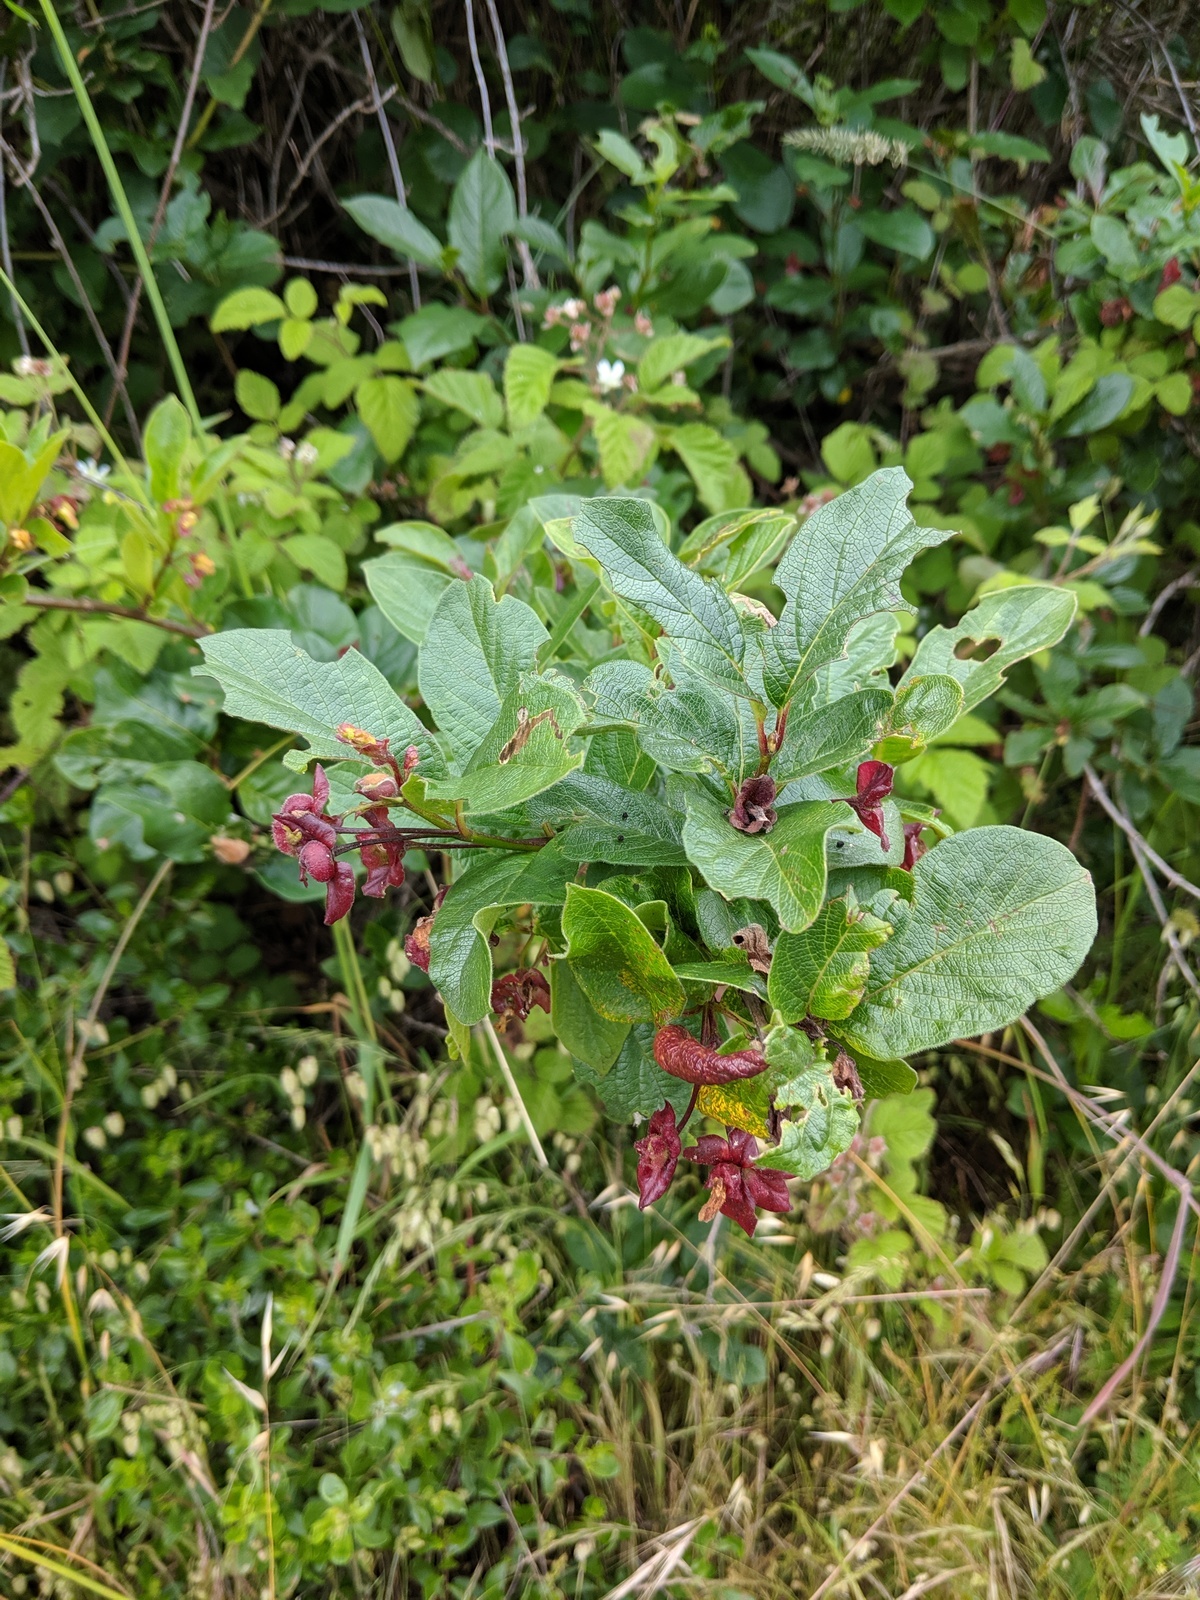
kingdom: Plantae
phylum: Tracheophyta
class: Magnoliopsida
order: Dipsacales
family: Caprifoliaceae
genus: Lonicera
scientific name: Lonicera involucrata
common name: Californian honeysuckle
